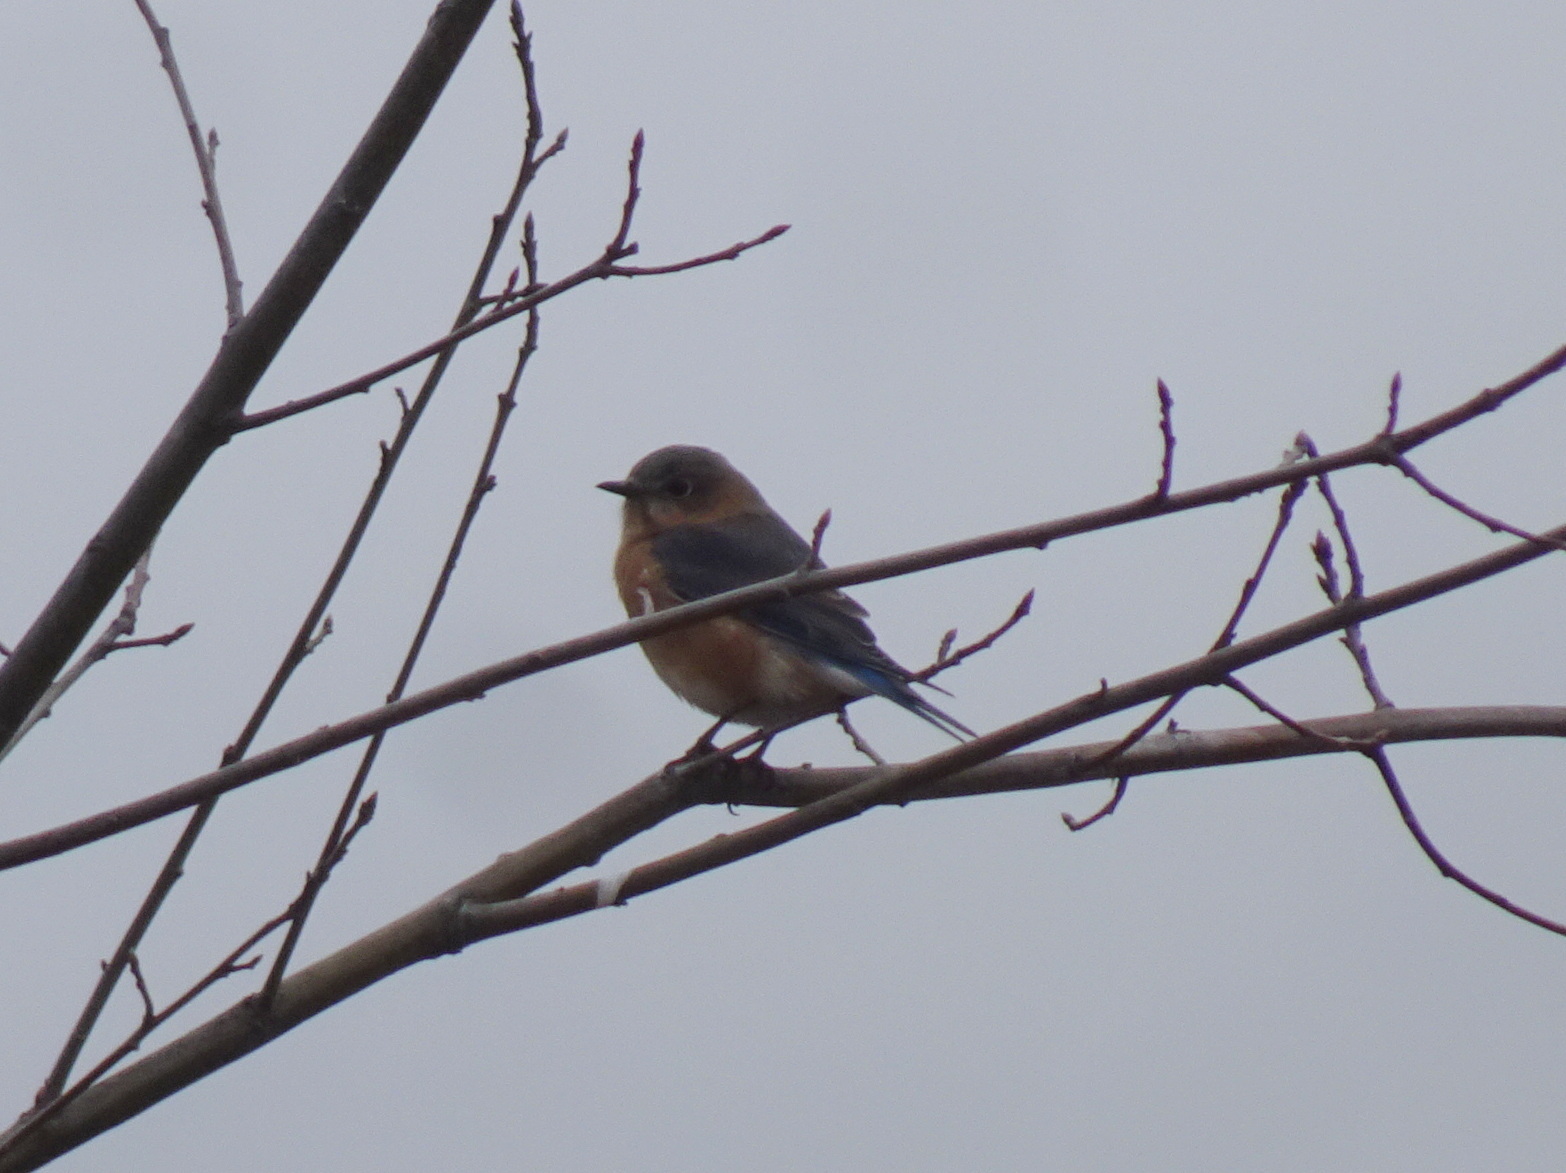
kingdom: Animalia
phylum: Chordata
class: Aves
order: Passeriformes
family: Turdidae
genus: Sialia
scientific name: Sialia sialis
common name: Eastern bluebird
